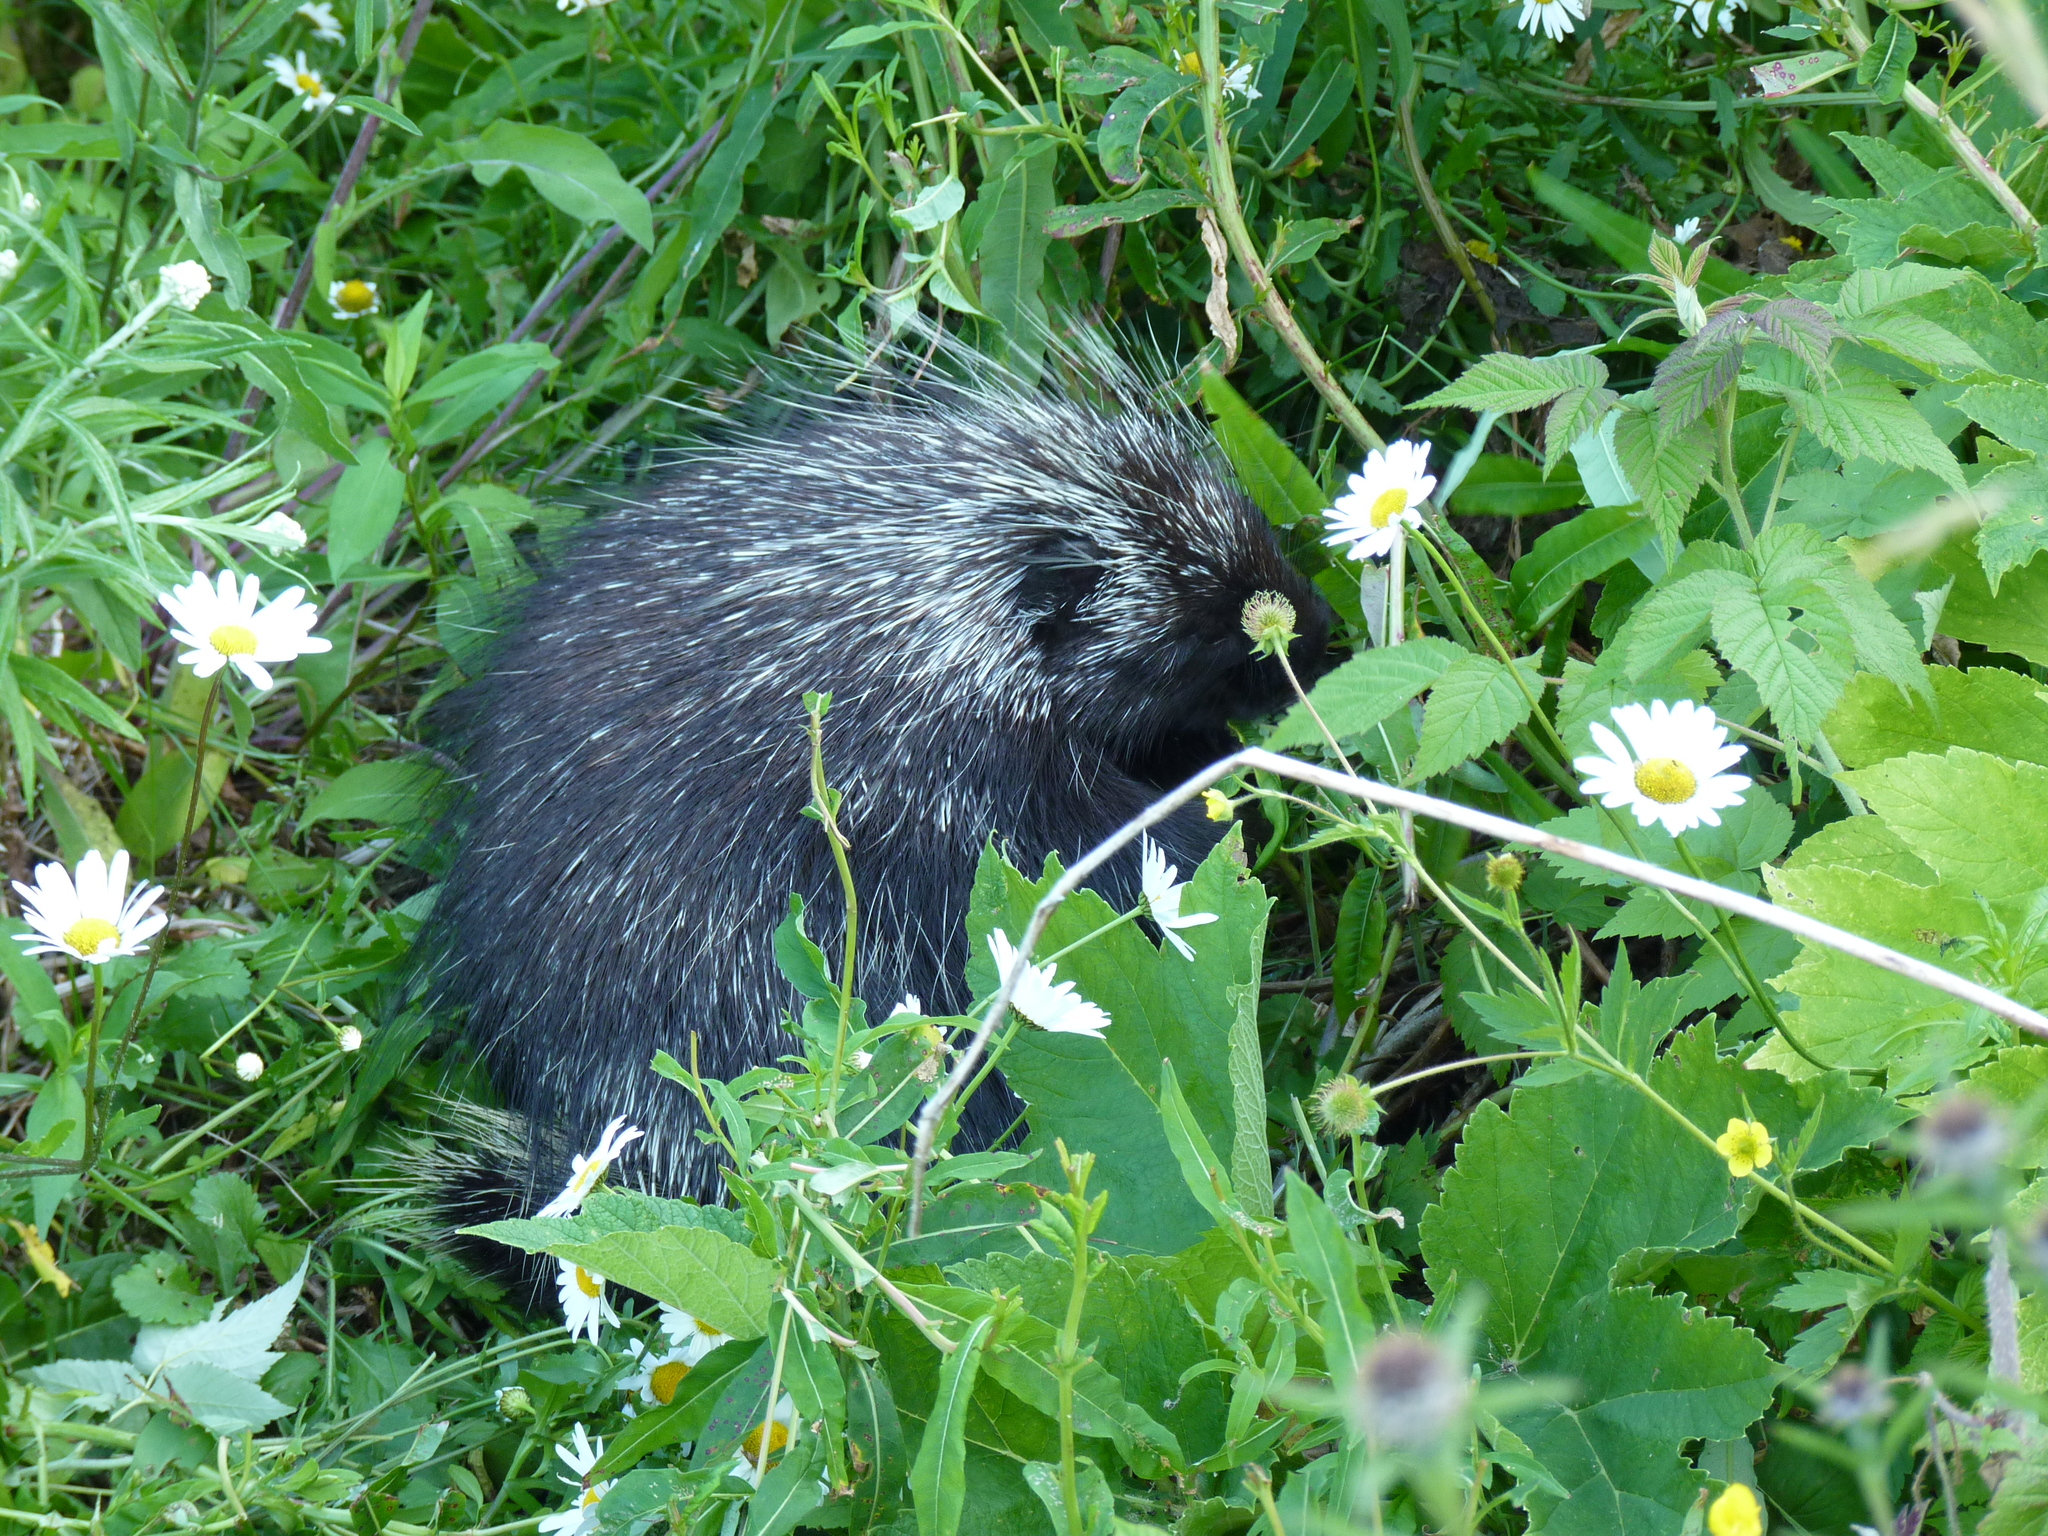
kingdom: Animalia
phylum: Chordata
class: Mammalia
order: Rodentia
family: Erethizontidae
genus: Erethizon
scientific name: Erethizon dorsatus
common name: North american porcupine
